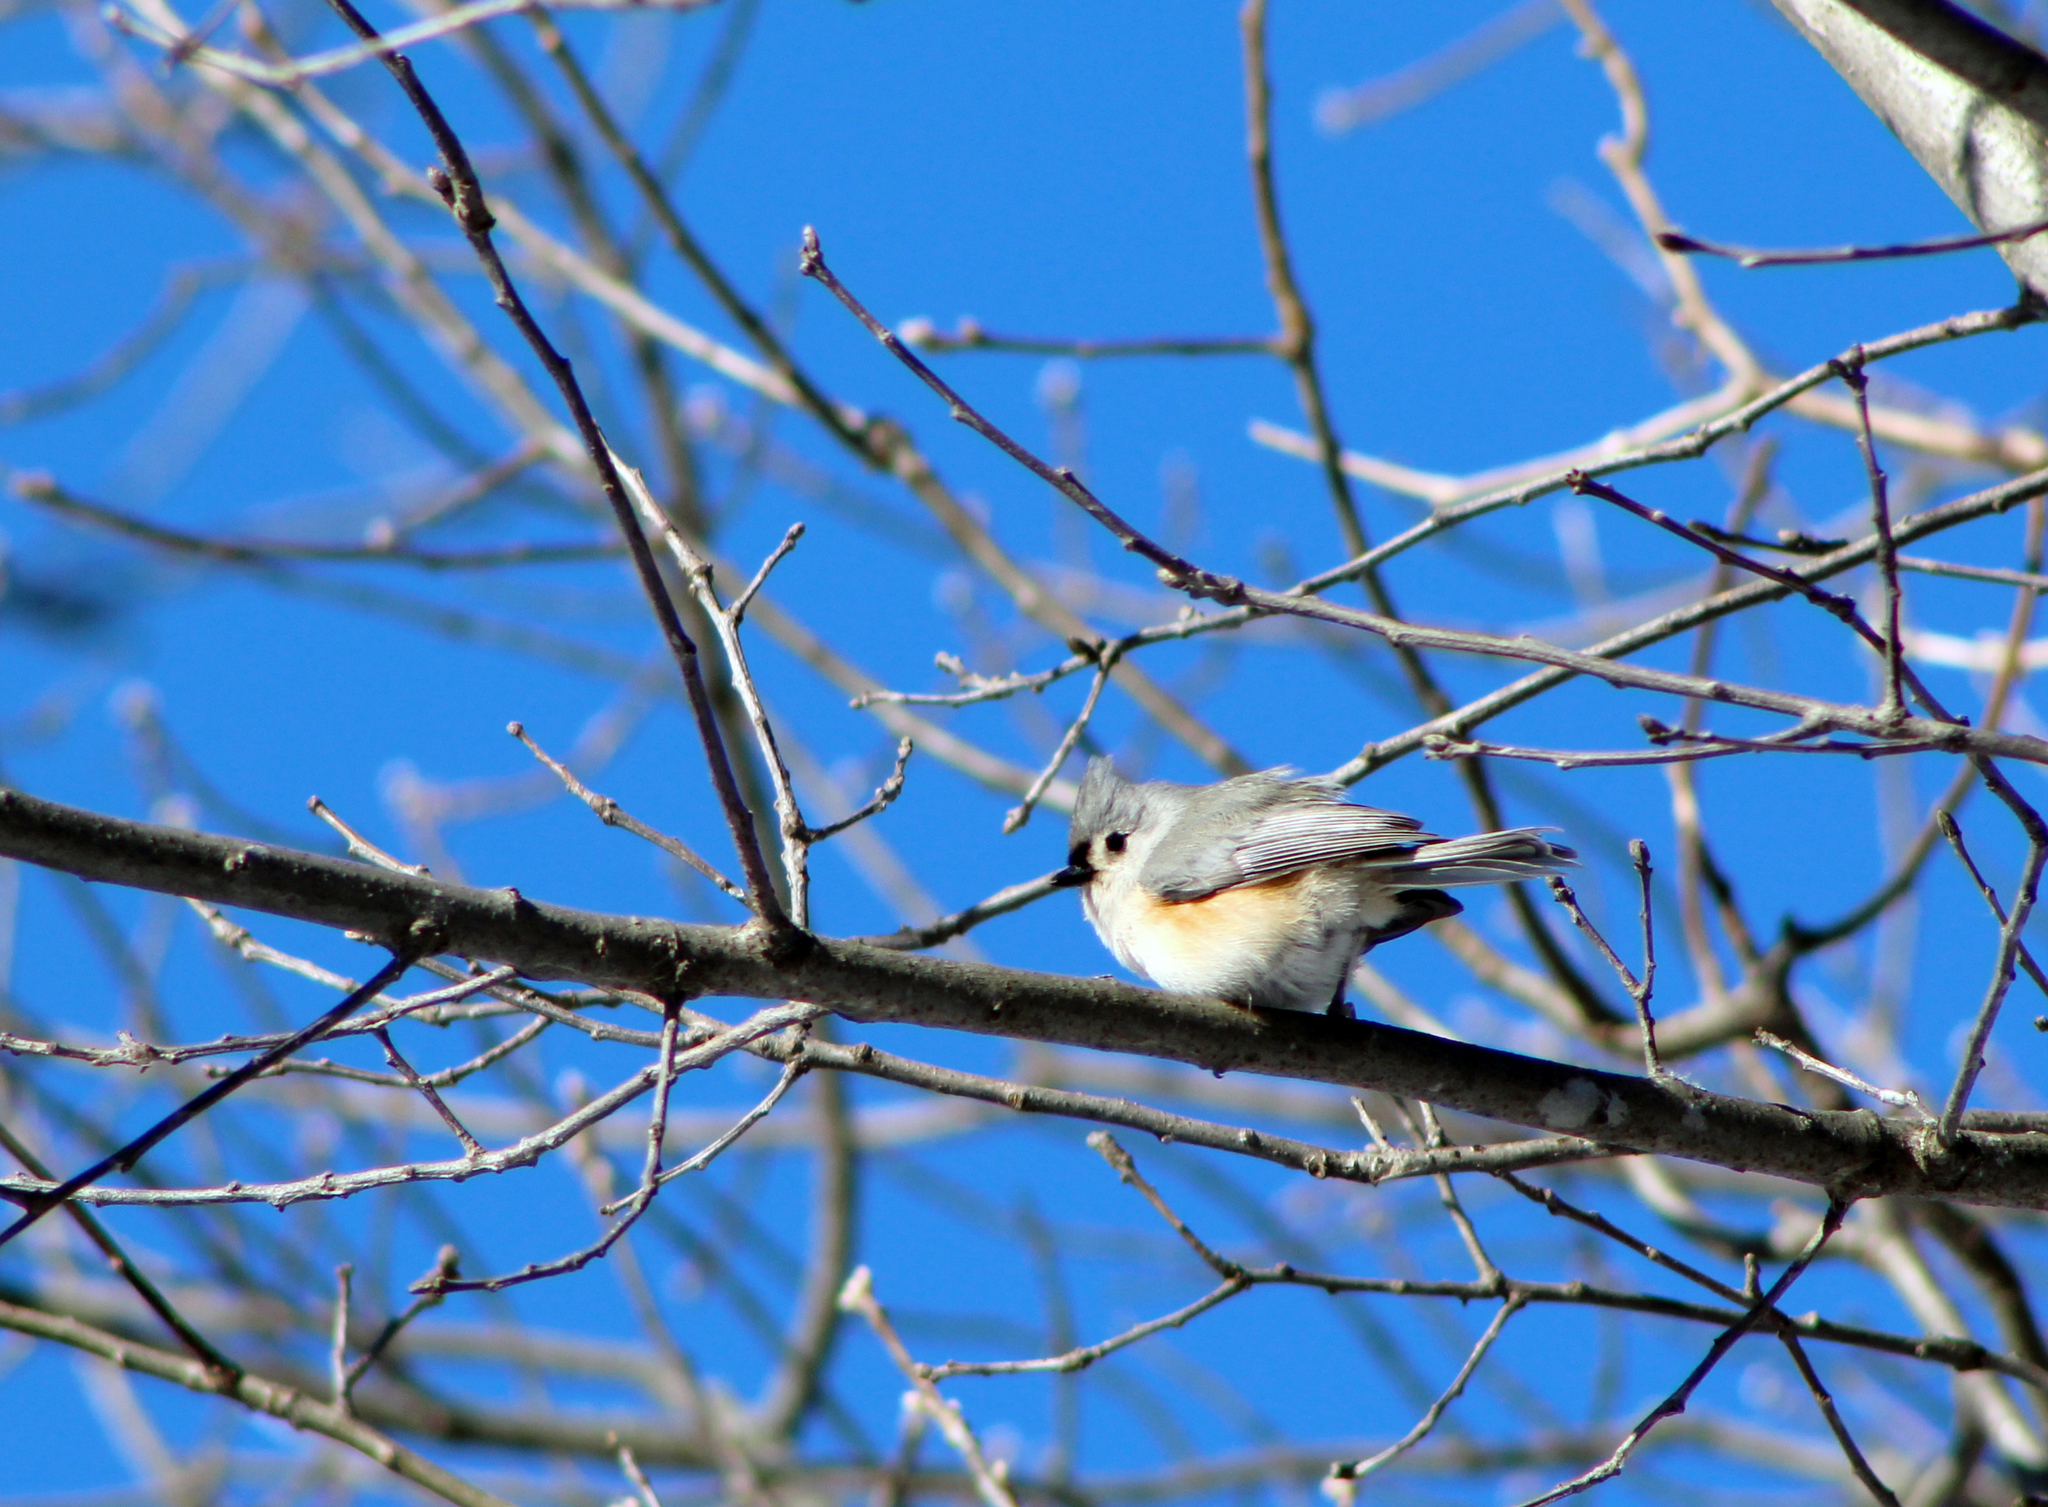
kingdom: Animalia
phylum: Chordata
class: Aves
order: Passeriformes
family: Paridae
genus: Baeolophus
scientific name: Baeolophus bicolor
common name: Tufted titmouse
